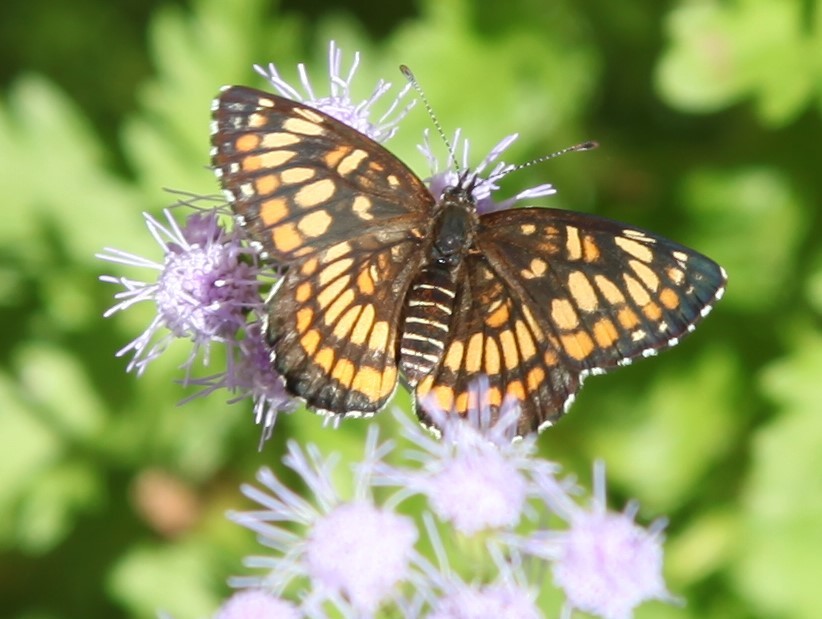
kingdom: Animalia
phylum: Arthropoda
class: Insecta
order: Lepidoptera
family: Nymphalidae
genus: Thessalia
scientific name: Thessalia theona
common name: Nymphalid moth
